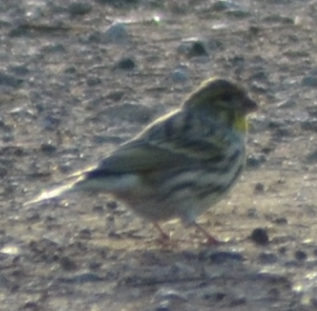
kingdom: Animalia
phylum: Chordata
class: Aves
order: Passeriformes
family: Fringillidae
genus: Serinus
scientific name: Serinus serinus
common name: European serin
